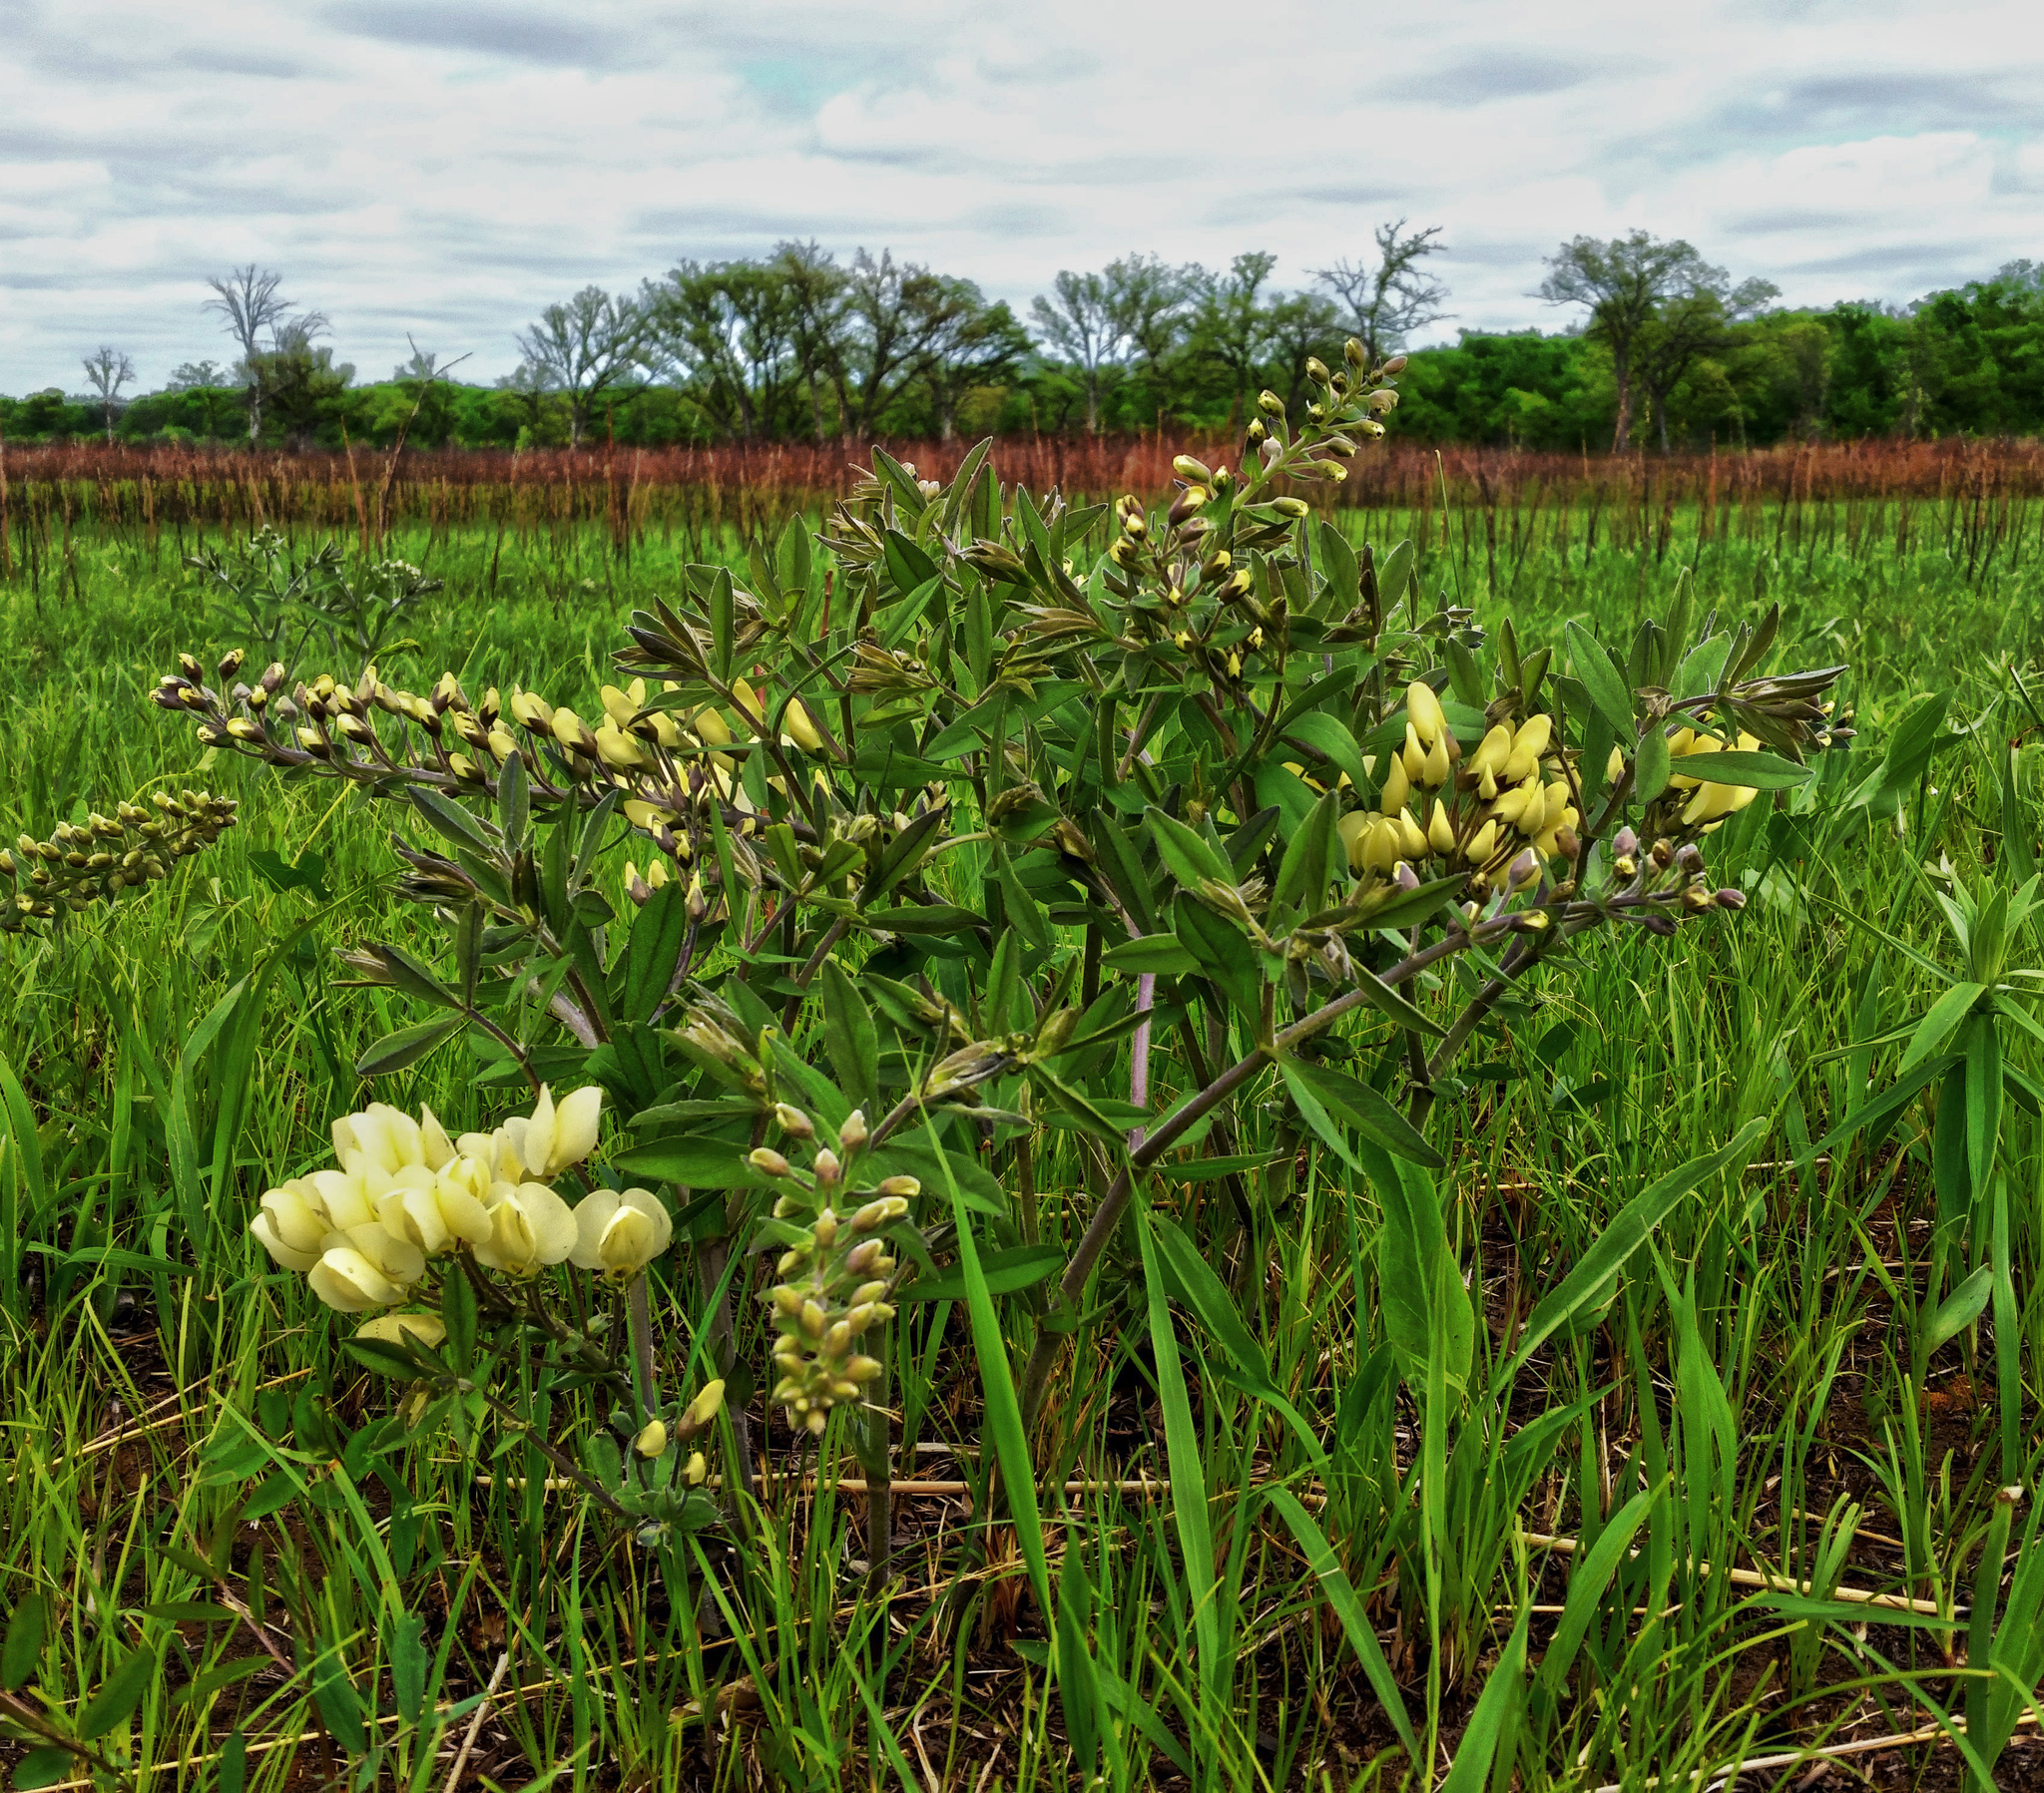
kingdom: Plantae
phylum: Tracheophyta
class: Magnoliopsida
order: Fabales
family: Fabaceae
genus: Baptisia
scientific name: Baptisia bracteata
